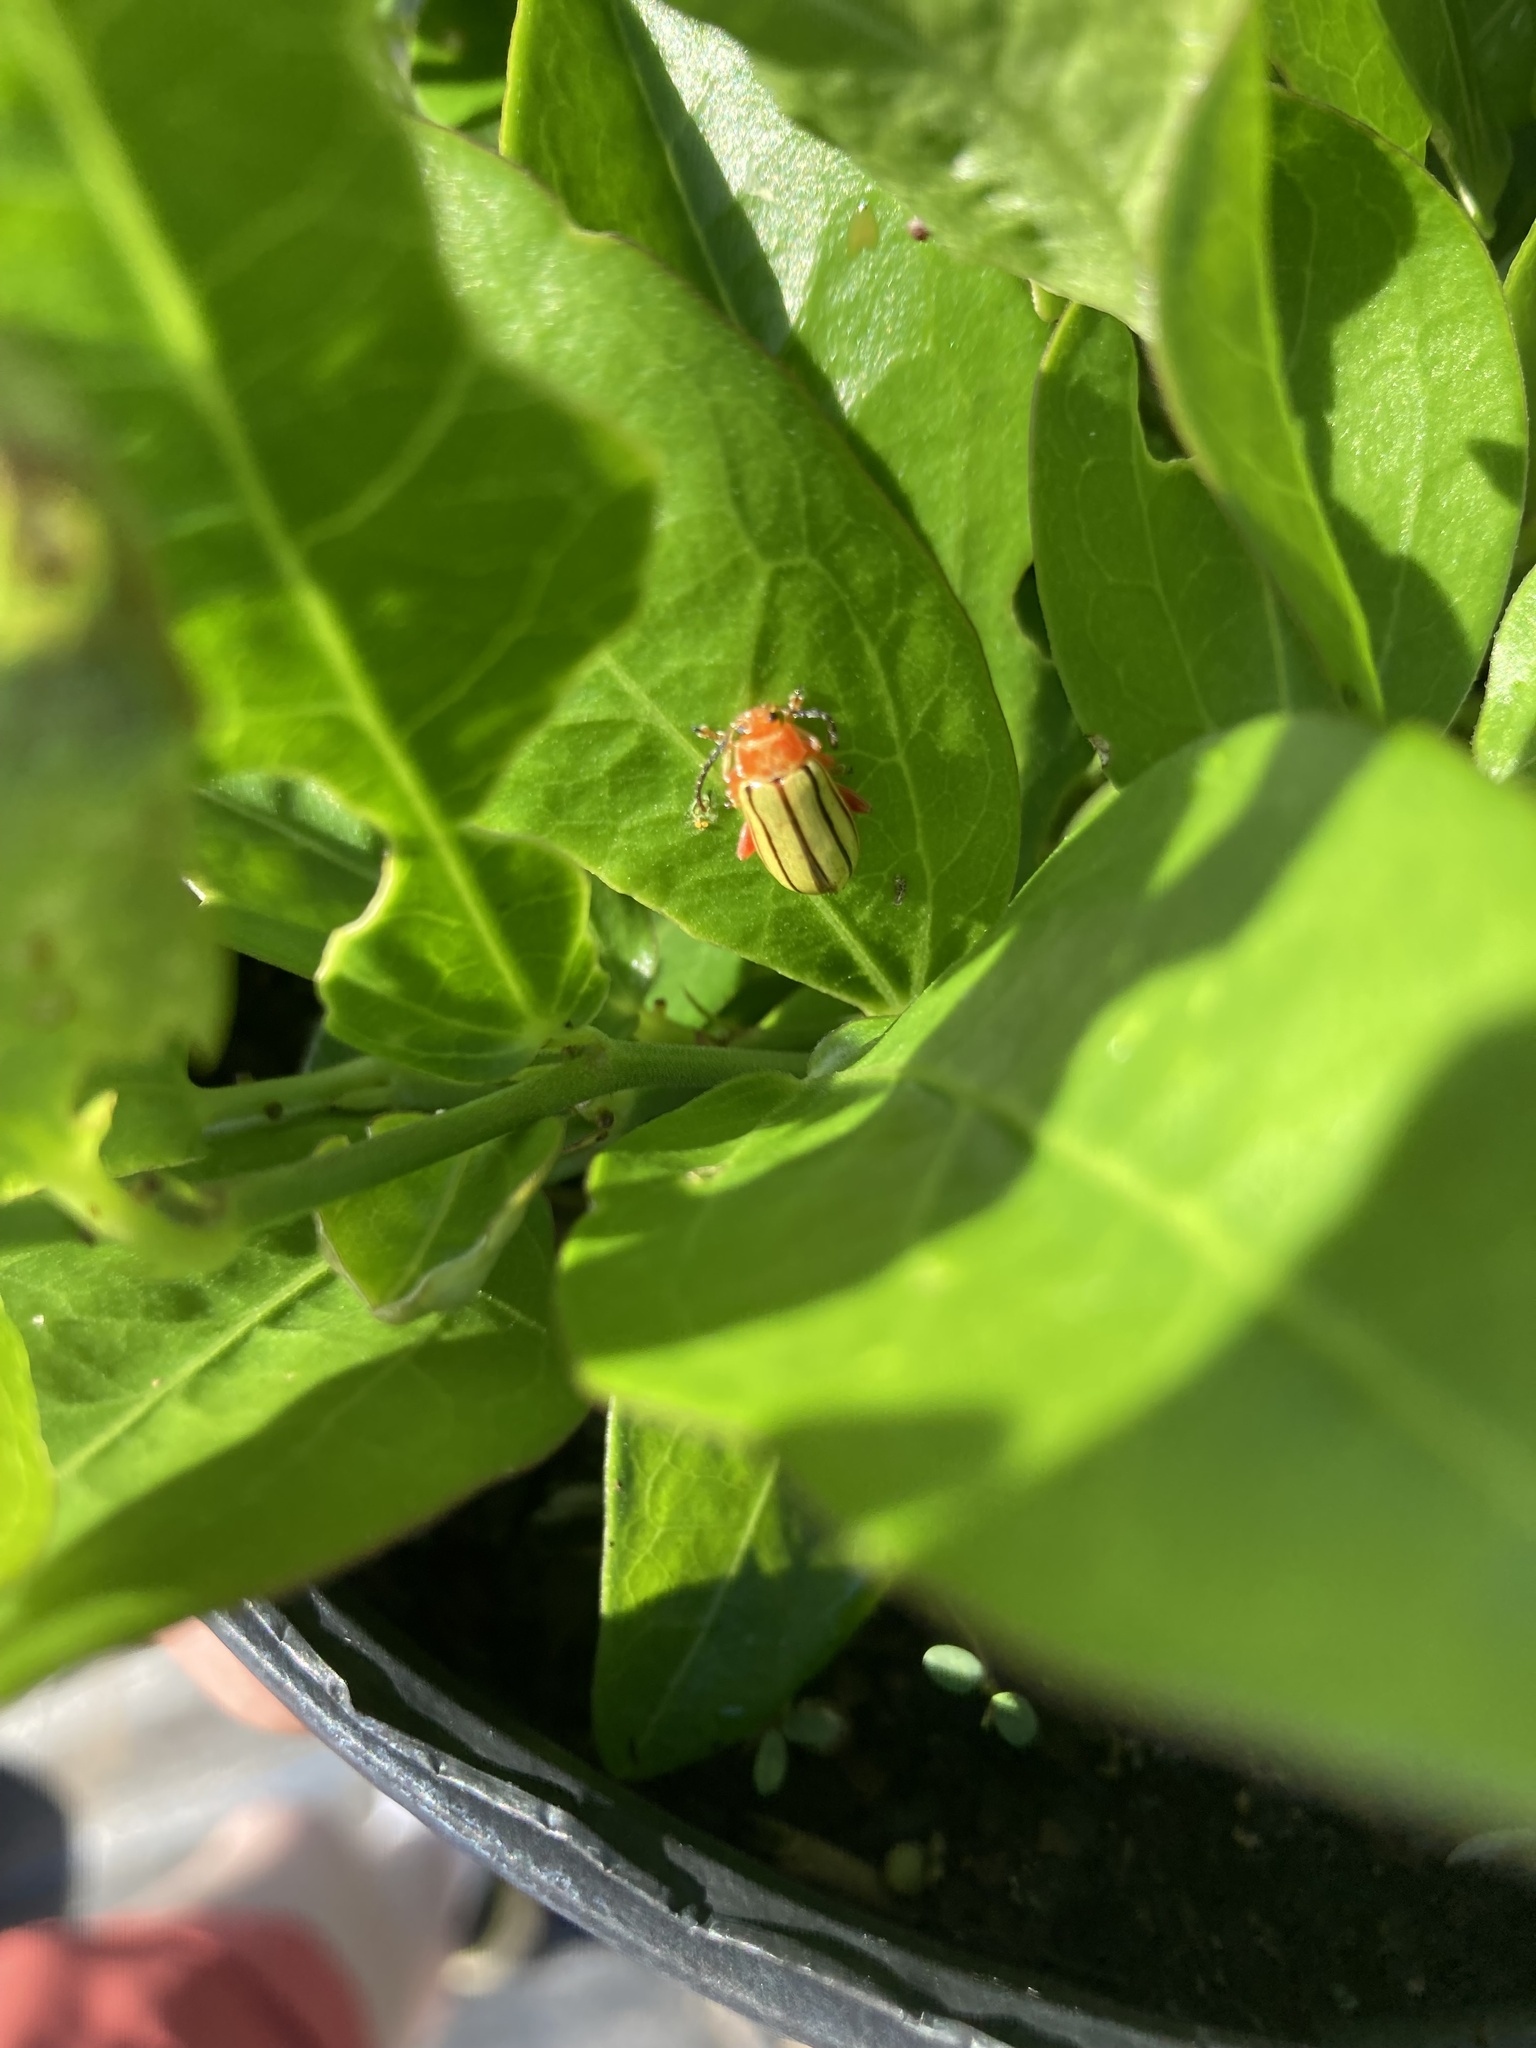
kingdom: Animalia
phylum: Arthropoda
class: Insecta
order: Coleoptera
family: Chrysomelidae
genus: Lema
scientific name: Lema daturaphila
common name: Leaf beetle
